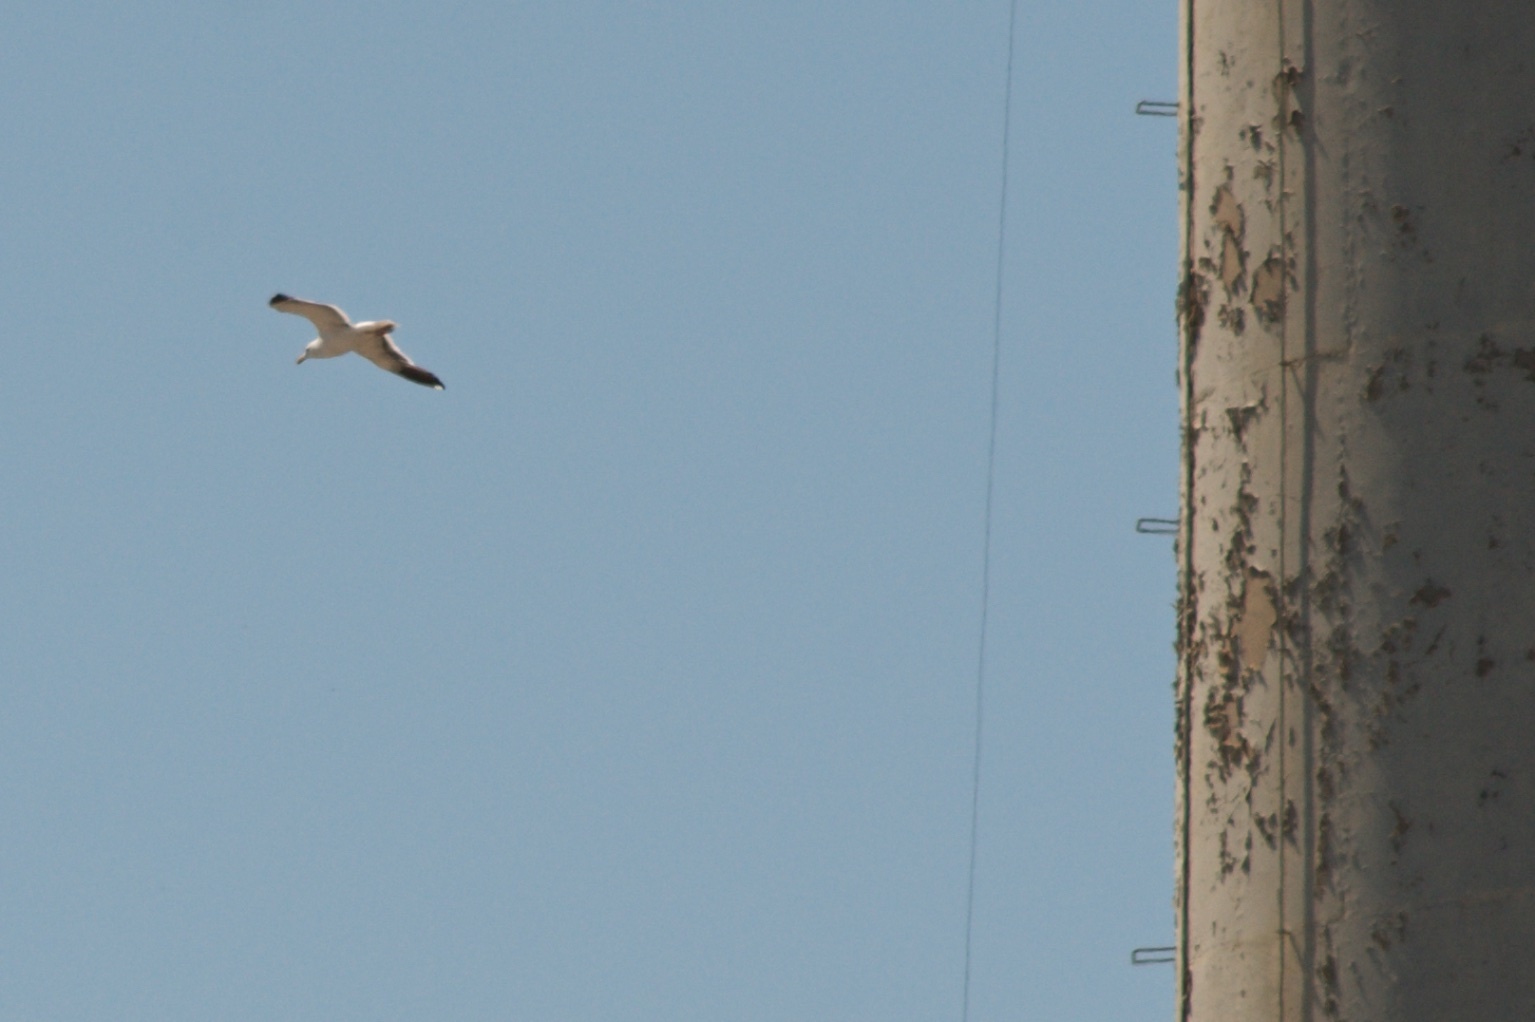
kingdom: Animalia
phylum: Chordata
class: Aves
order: Charadriiformes
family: Laridae
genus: Larus
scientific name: Larus occidentalis
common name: Western gull
